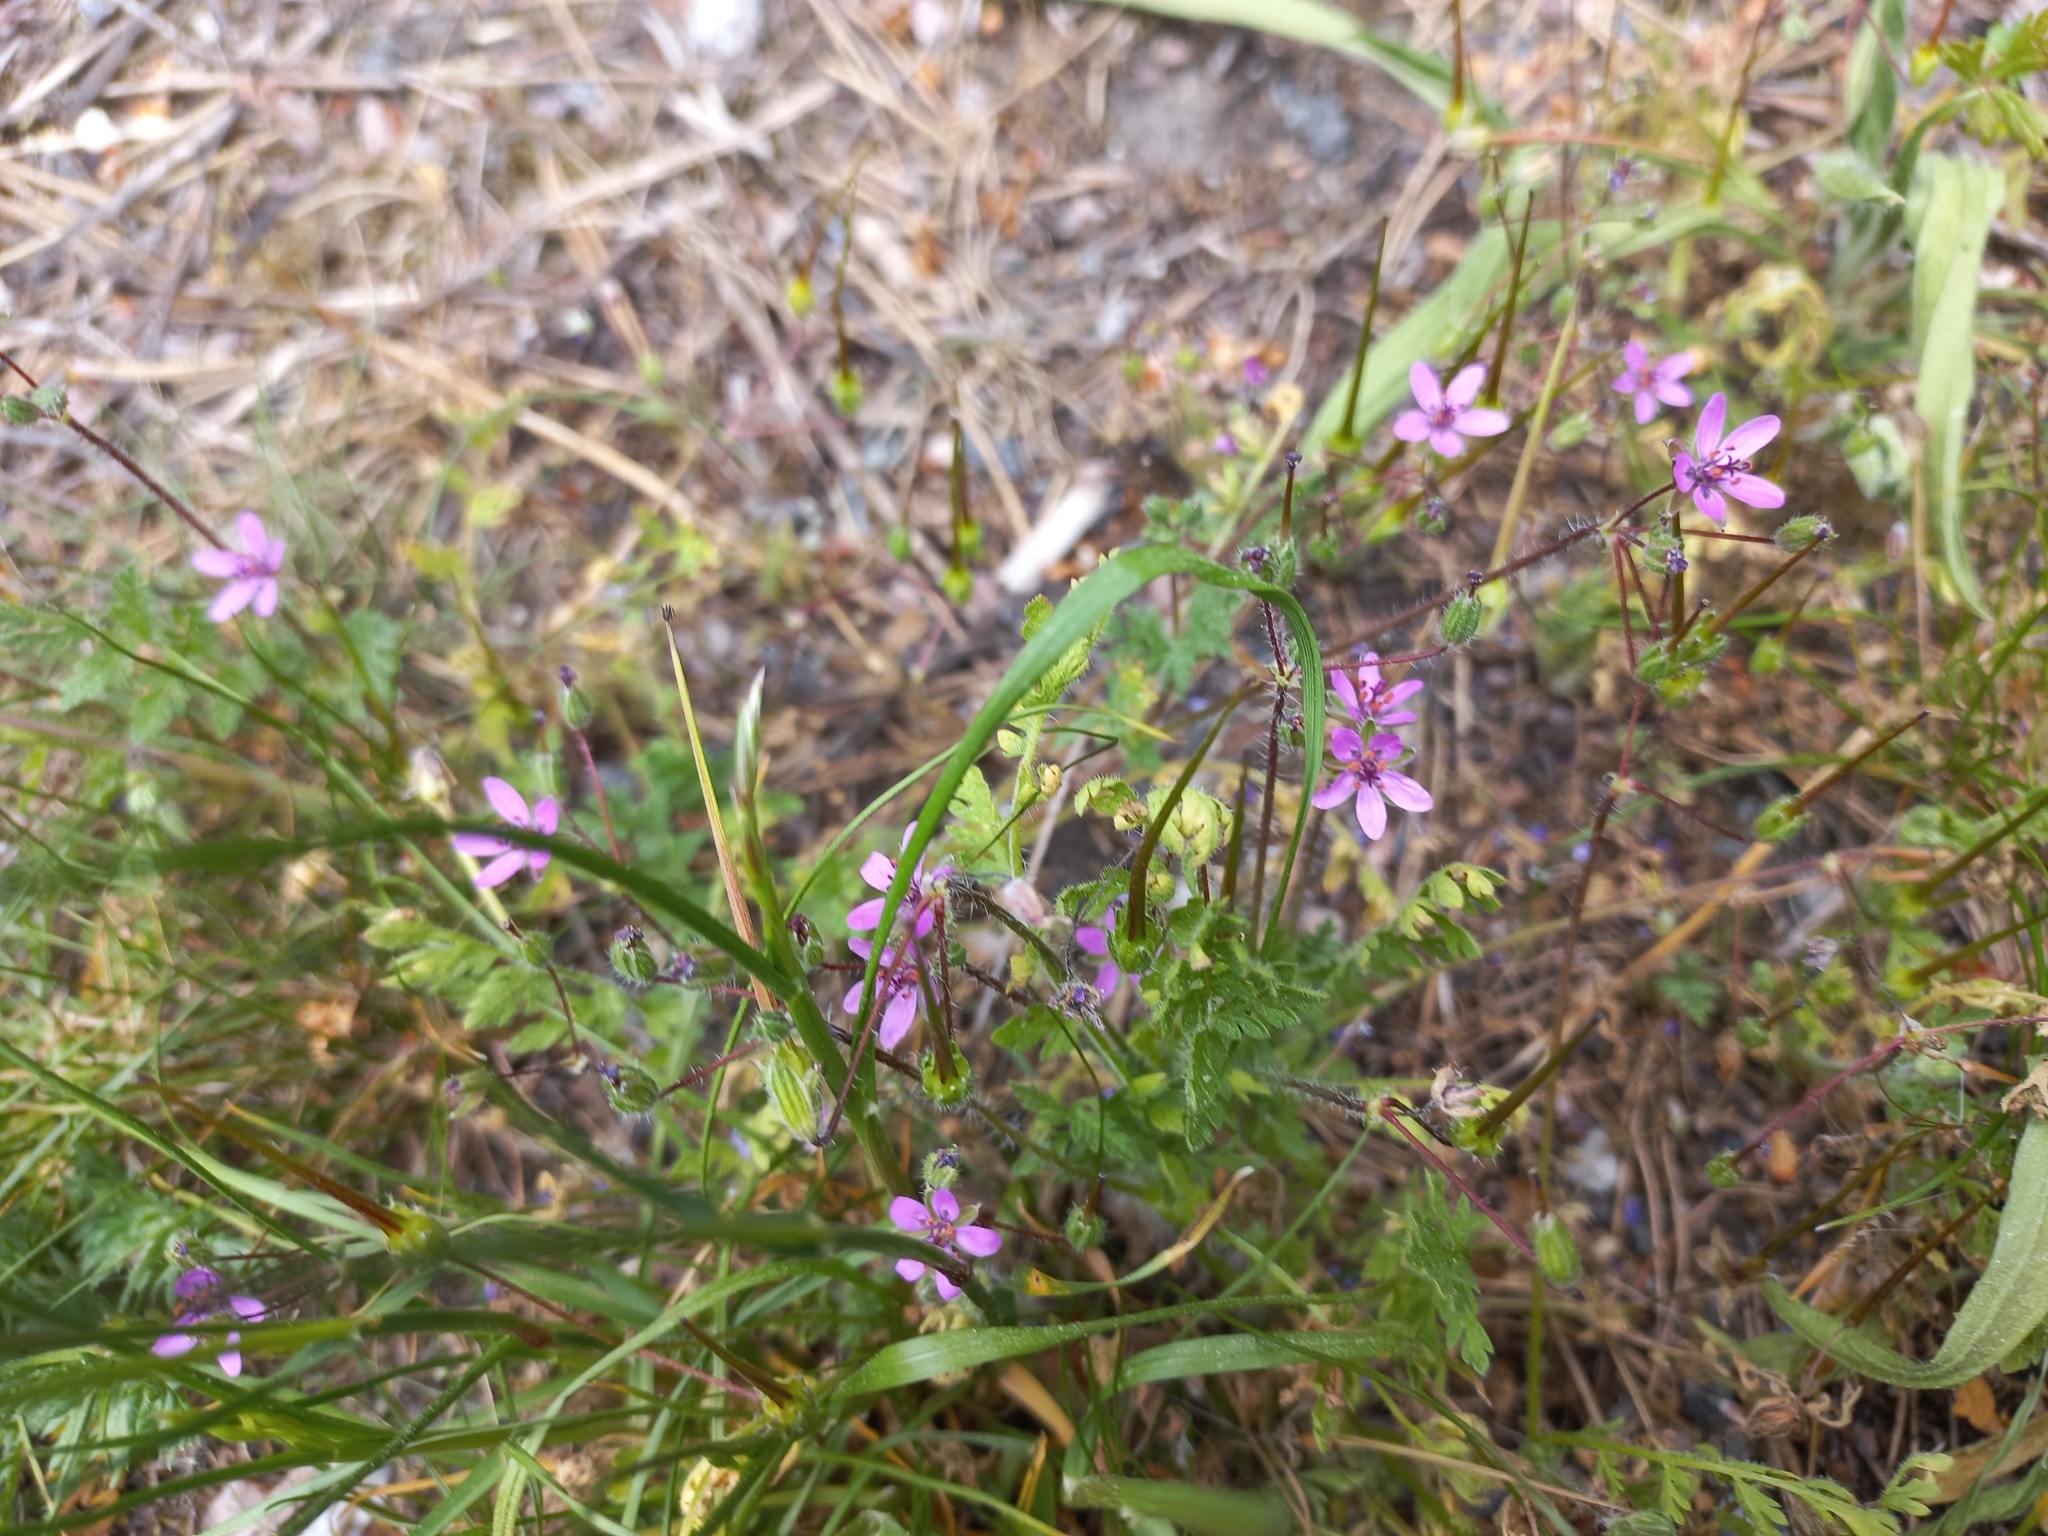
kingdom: Plantae
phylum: Tracheophyta
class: Magnoliopsida
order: Geraniales
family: Geraniaceae
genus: Erodium
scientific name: Erodium cicutarium
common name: Common stork's-bill
